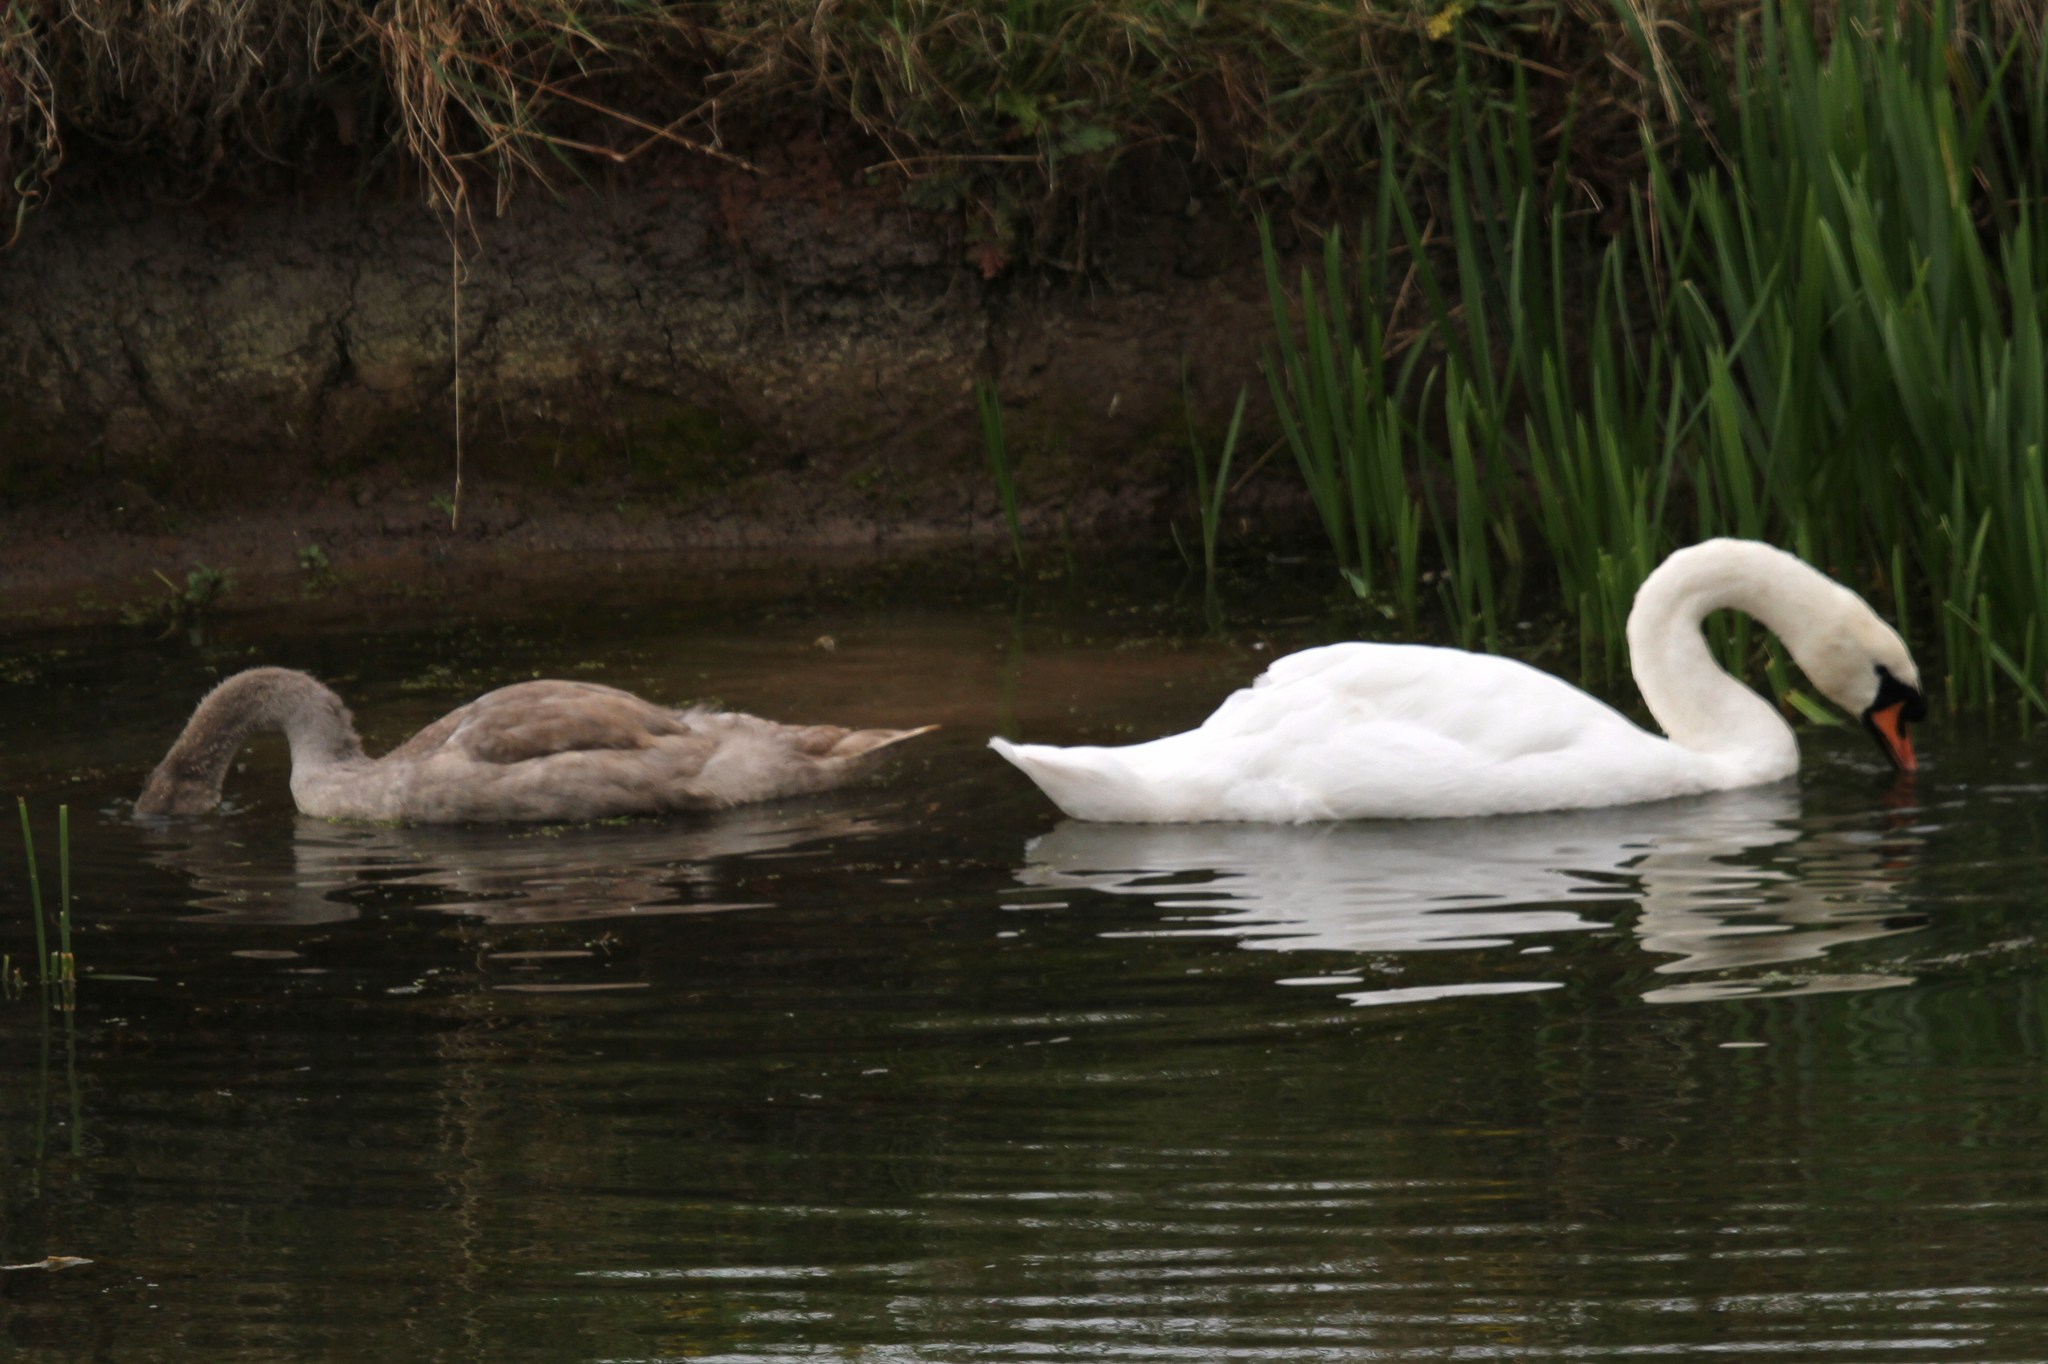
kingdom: Animalia
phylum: Chordata
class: Aves
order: Anseriformes
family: Anatidae
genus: Cygnus
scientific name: Cygnus olor
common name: Mute swan
